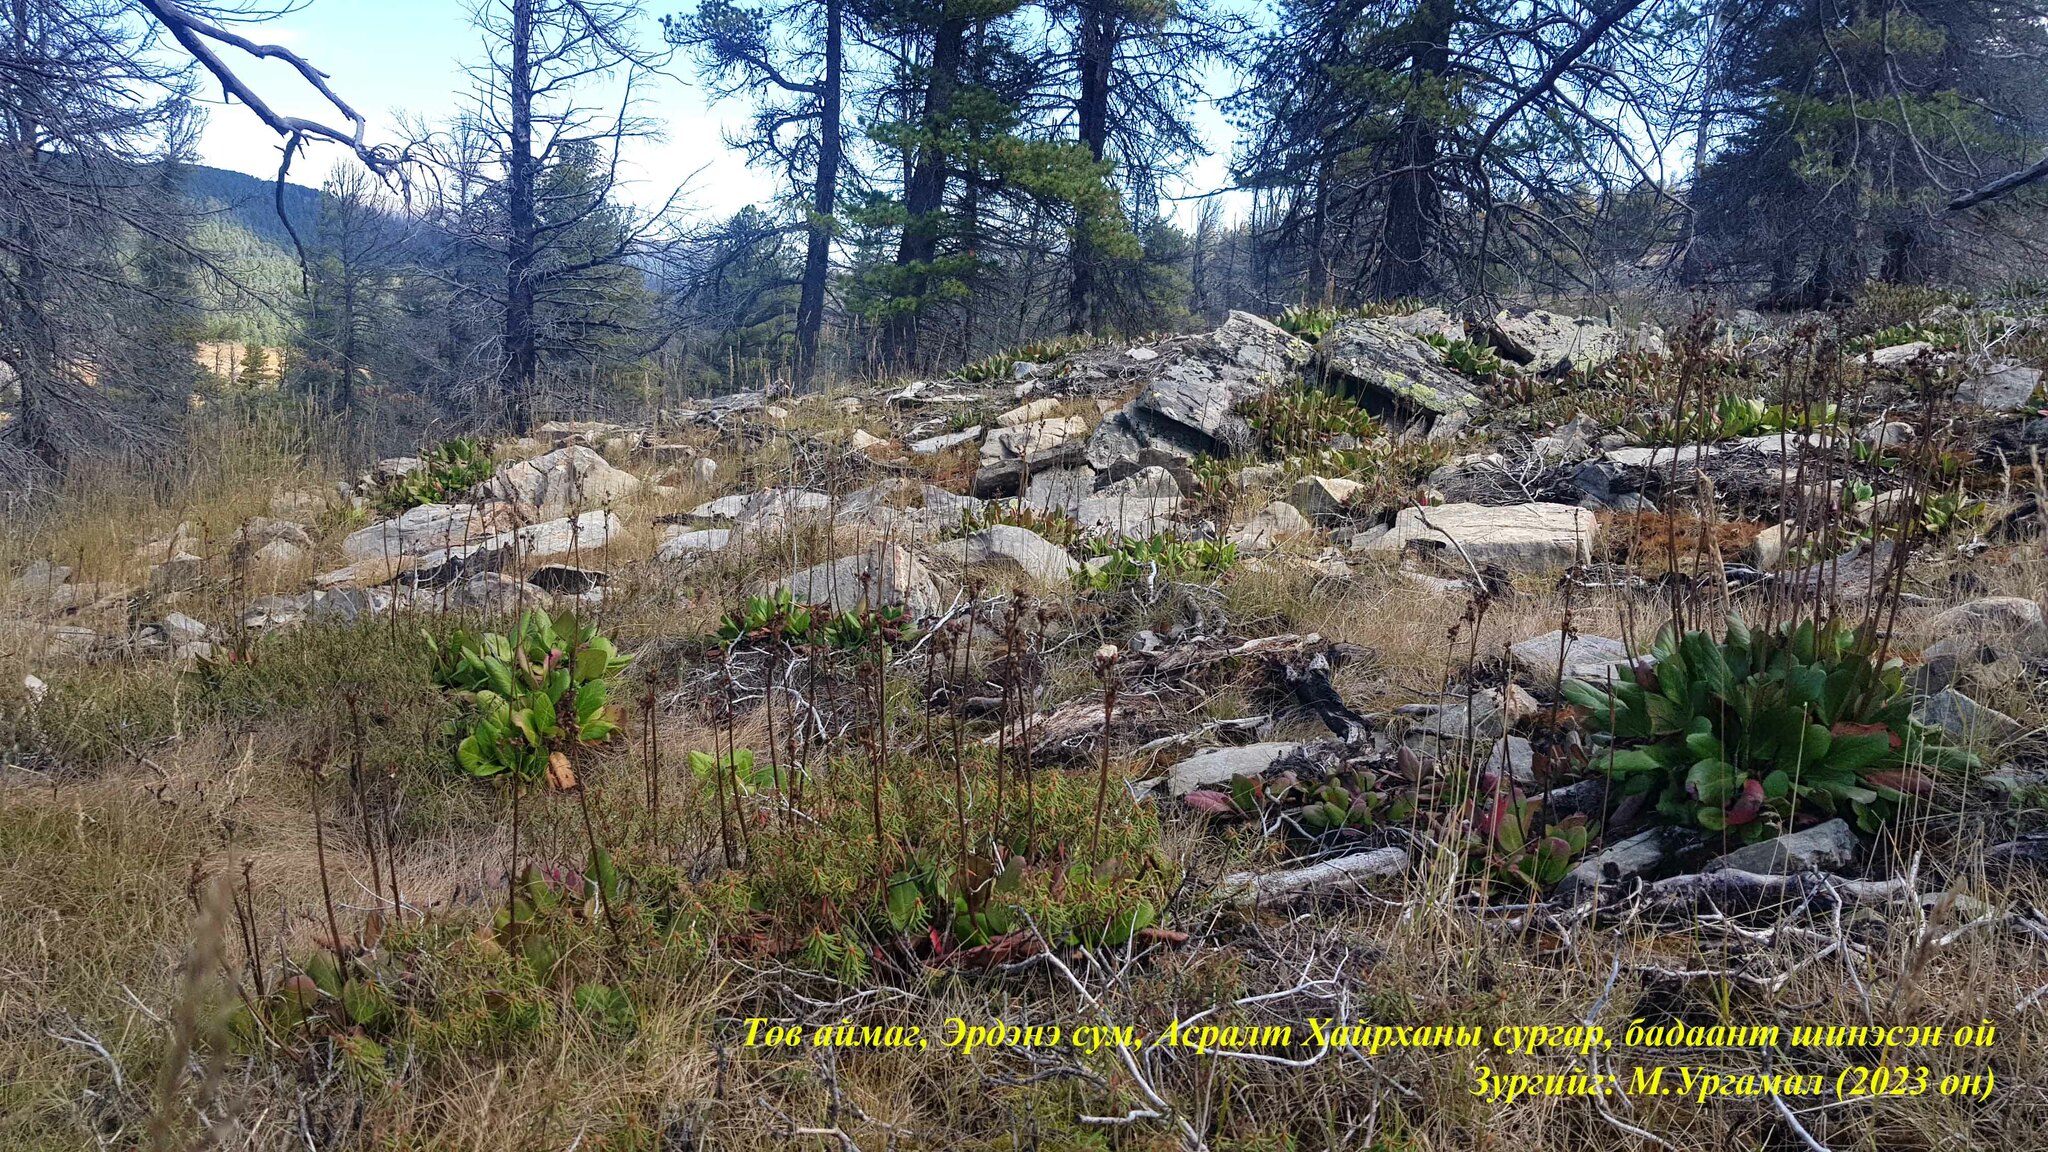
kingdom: Plantae
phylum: Tracheophyta
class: Magnoliopsida
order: Saxifragales
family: Saxifragaceae
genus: Bergenia
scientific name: Bergenia crassifolia
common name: Elephant-ears
